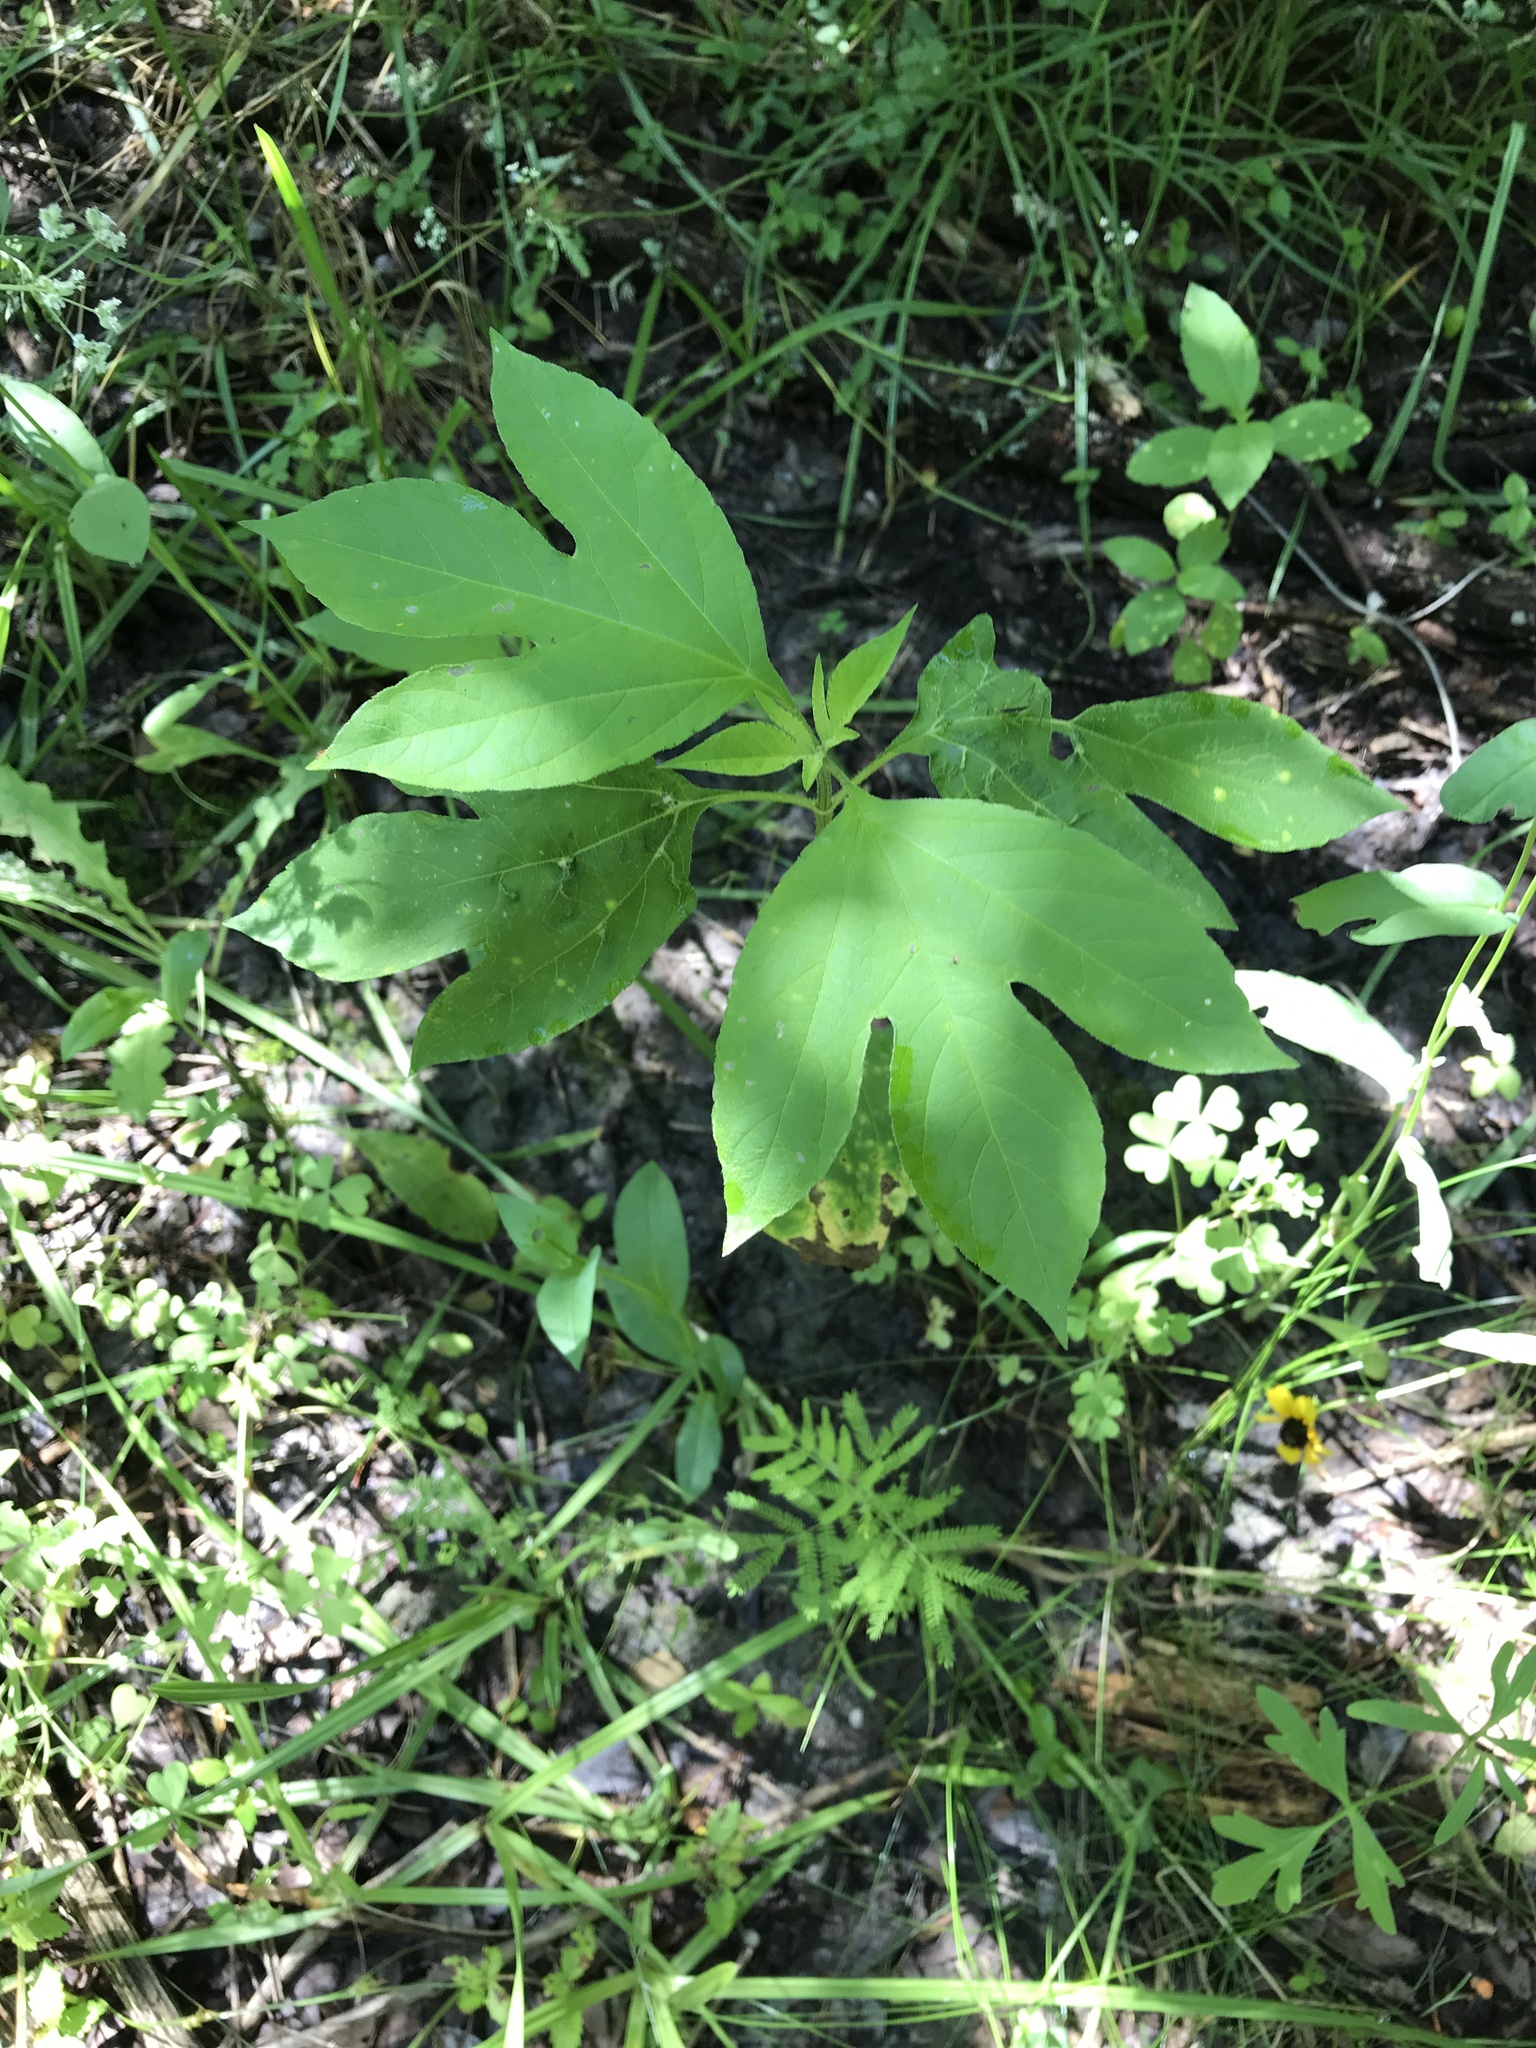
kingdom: Plantae
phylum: Tracheophyta
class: Magnoliopsida
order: Asterales
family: Asteraceae
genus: Ambrosia
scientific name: Ambrosia trifida
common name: Giant ragweed
